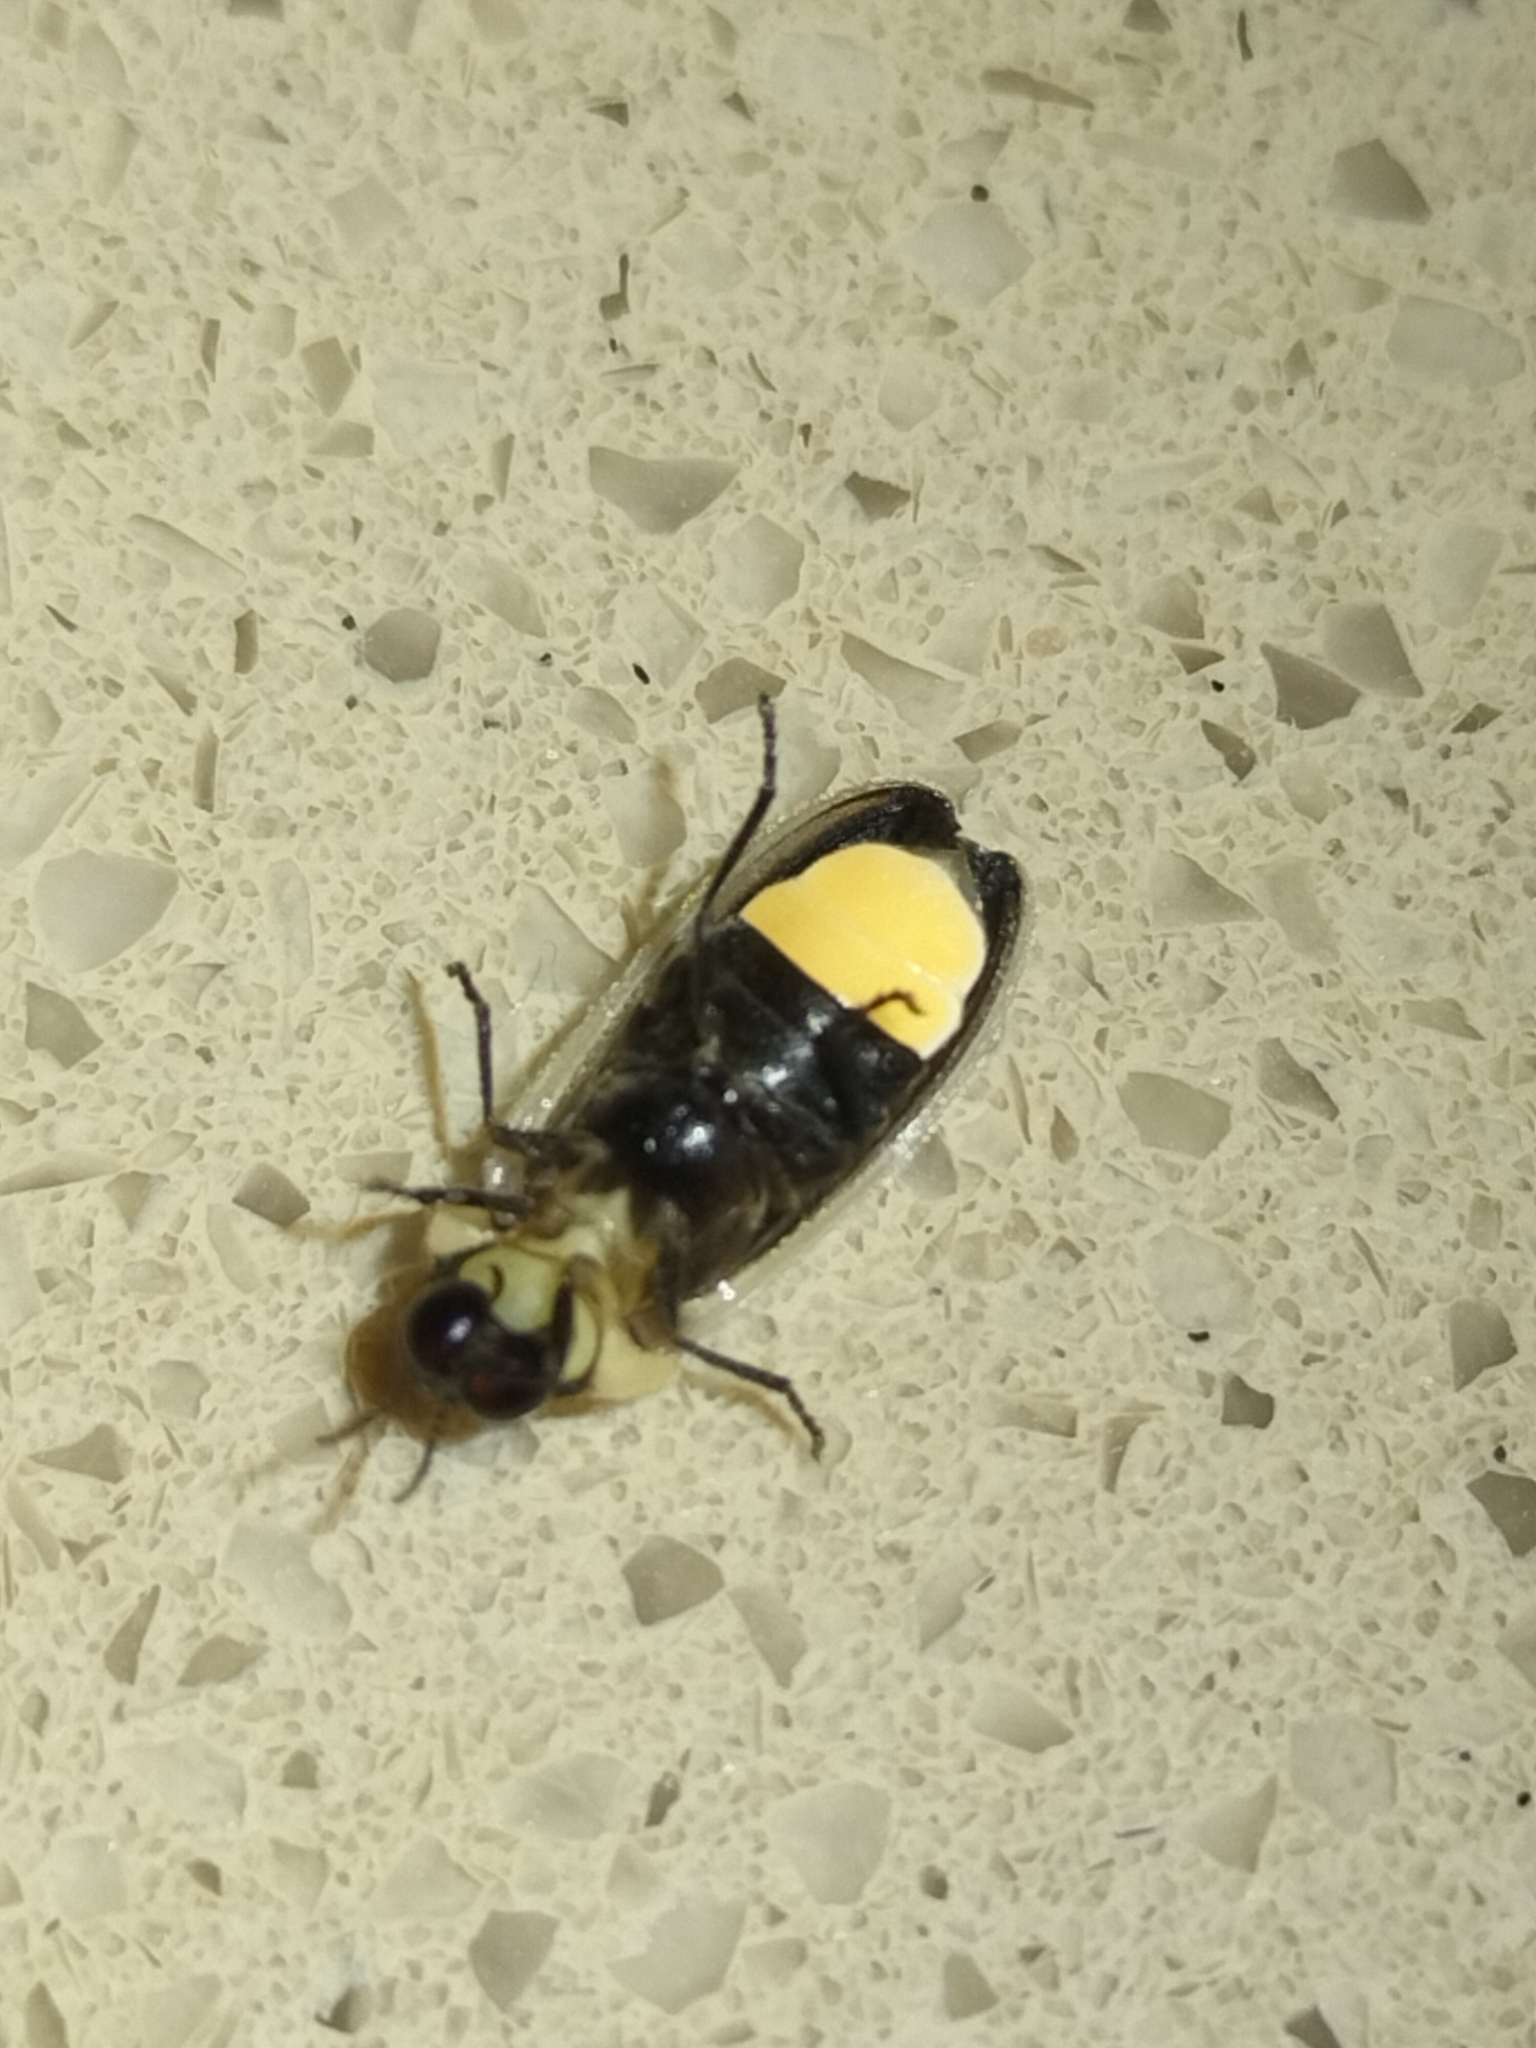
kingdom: Animalia
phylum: Arthropoda
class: Insecta
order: Coleoptera
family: Lampyridae
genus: Atyphella
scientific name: Atyphella olivieri
